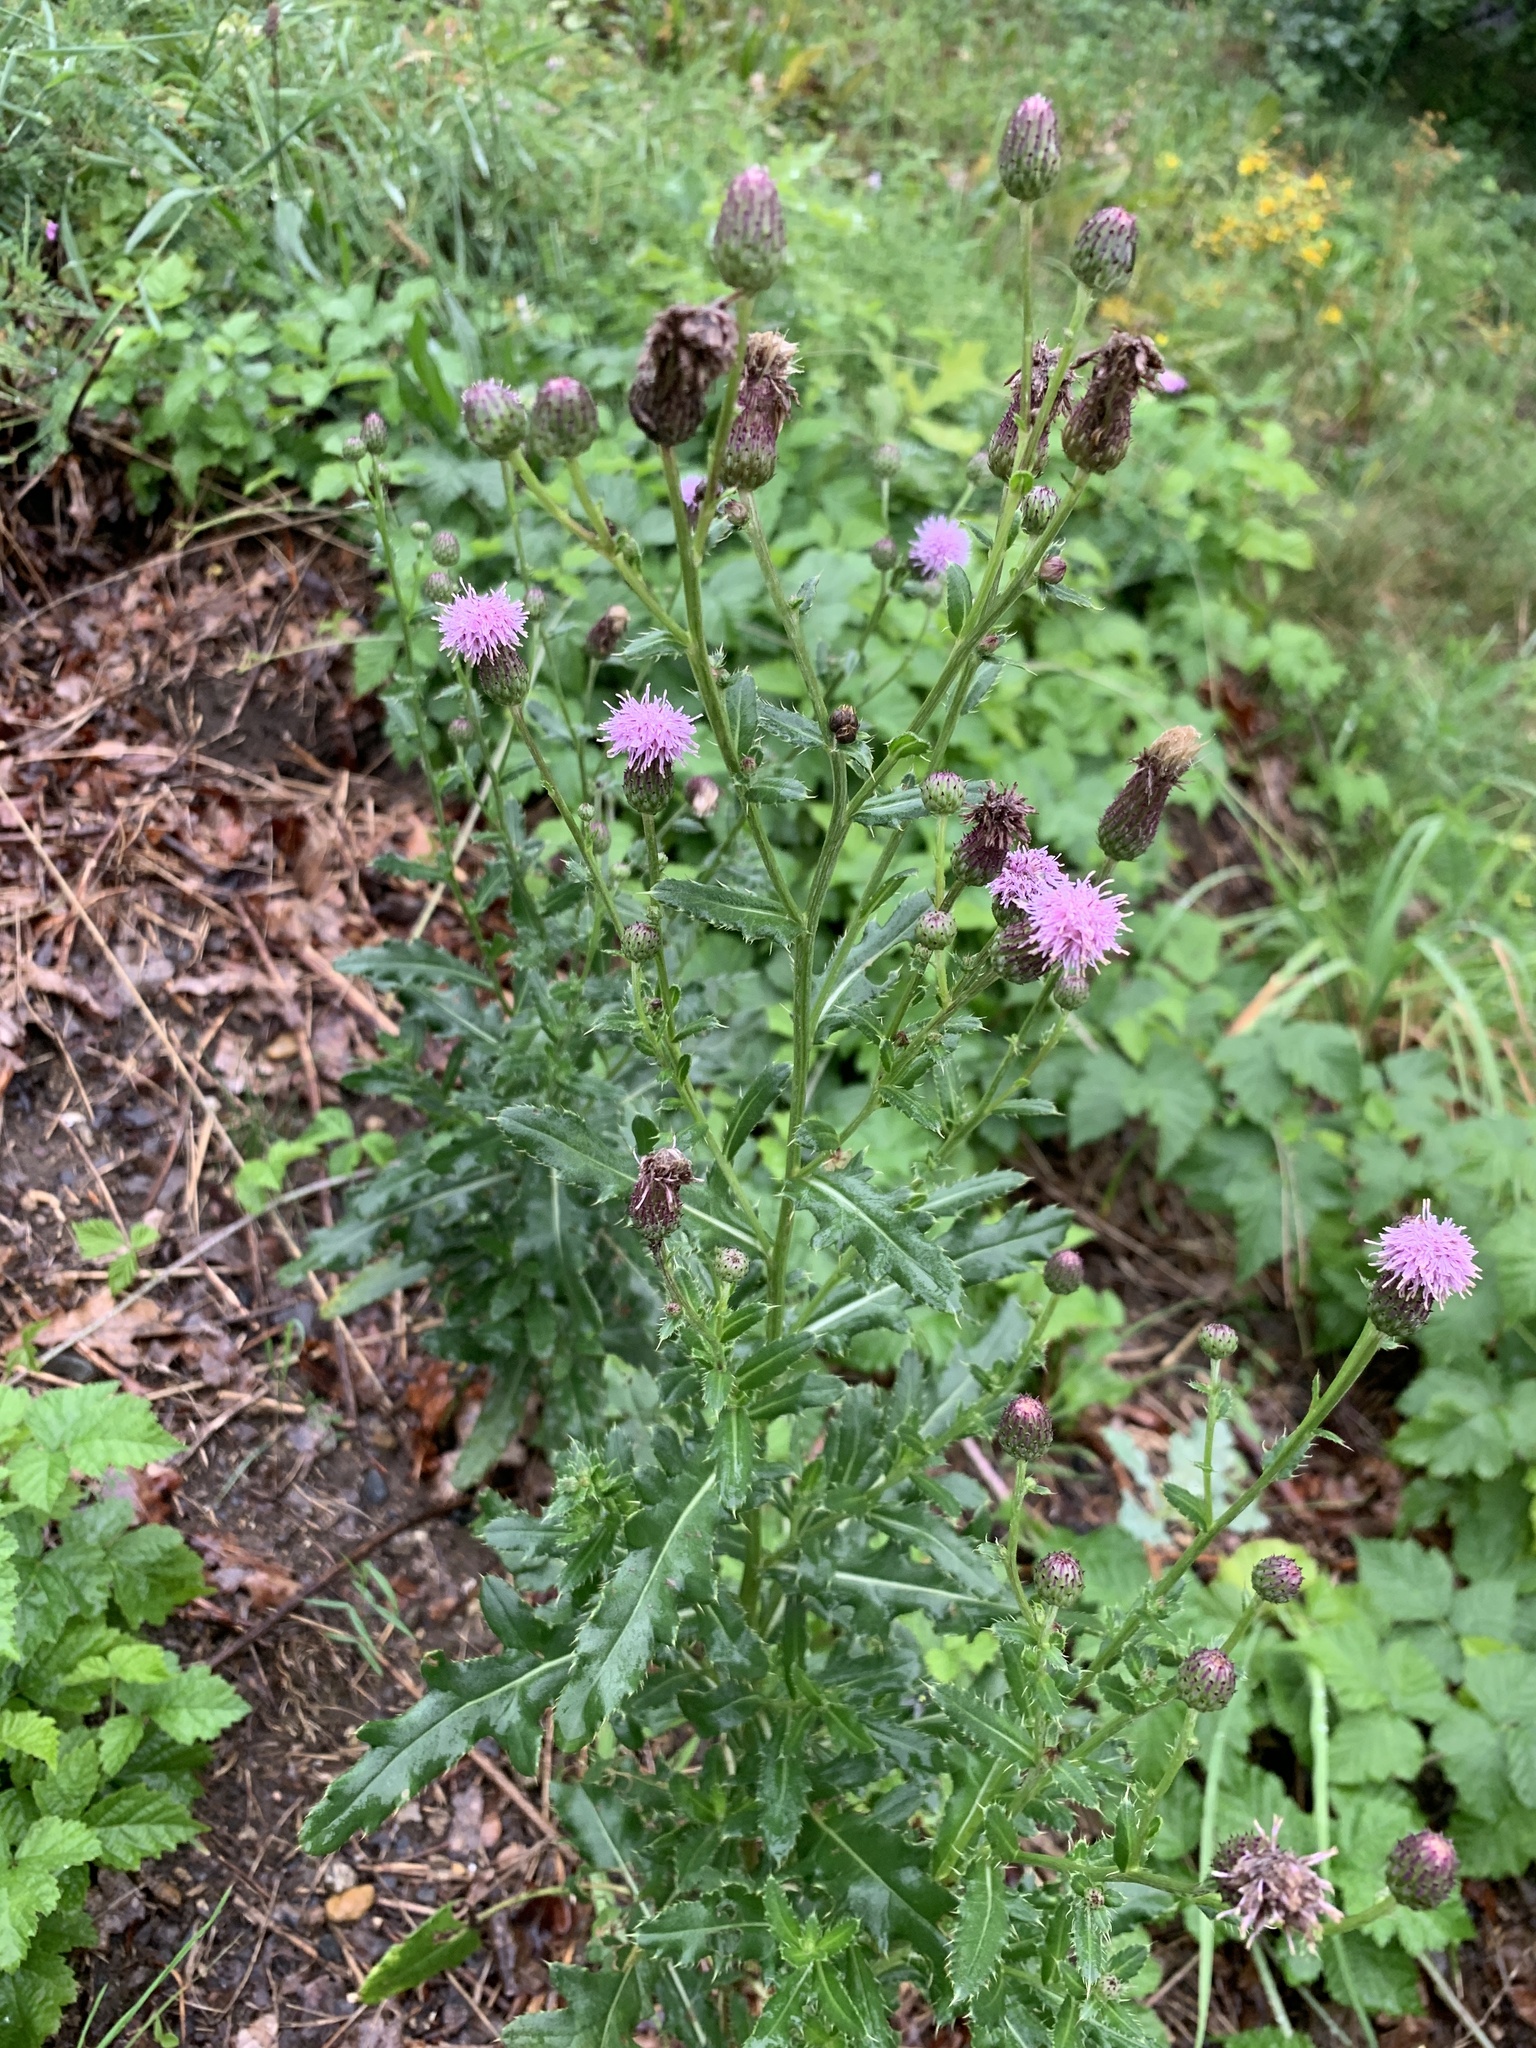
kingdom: Plantae
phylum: Tracheophyta
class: Magnoliopsida
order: Asterales
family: Asteraceae
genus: Cirsium
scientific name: Cirsium arvense
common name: Creeping thistle
